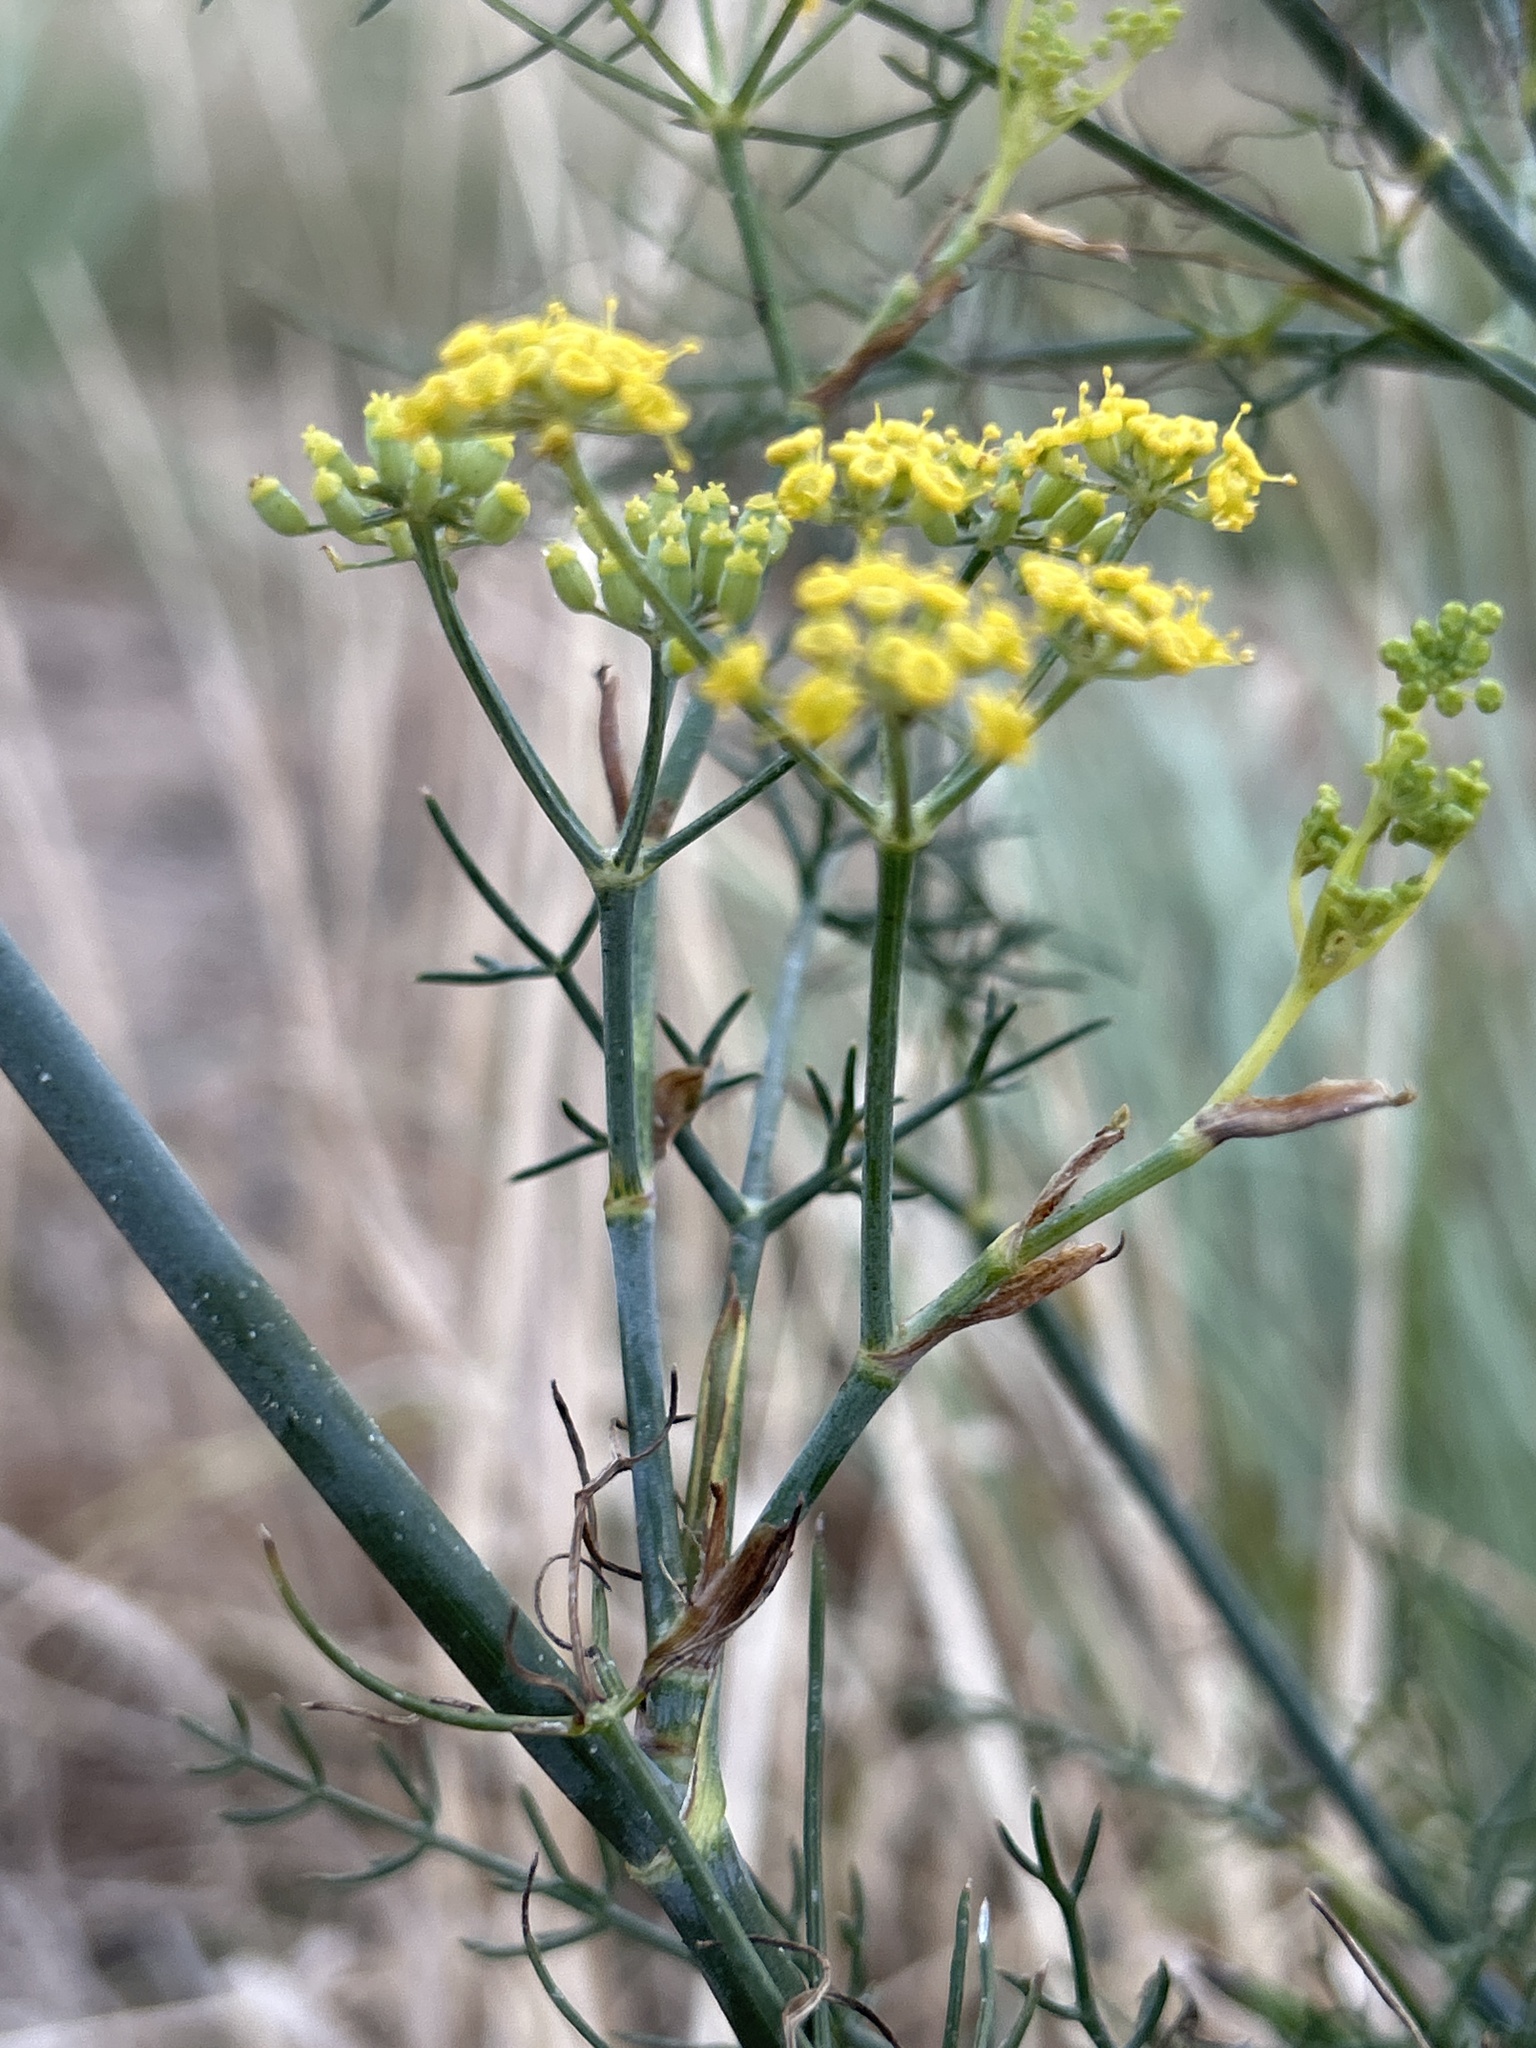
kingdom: Plantae
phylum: Tracheophyta
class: Magnoliopsida
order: Apiales
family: Apiaceae
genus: Foeniculum
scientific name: Foeniculum vulgare
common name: Fennel
